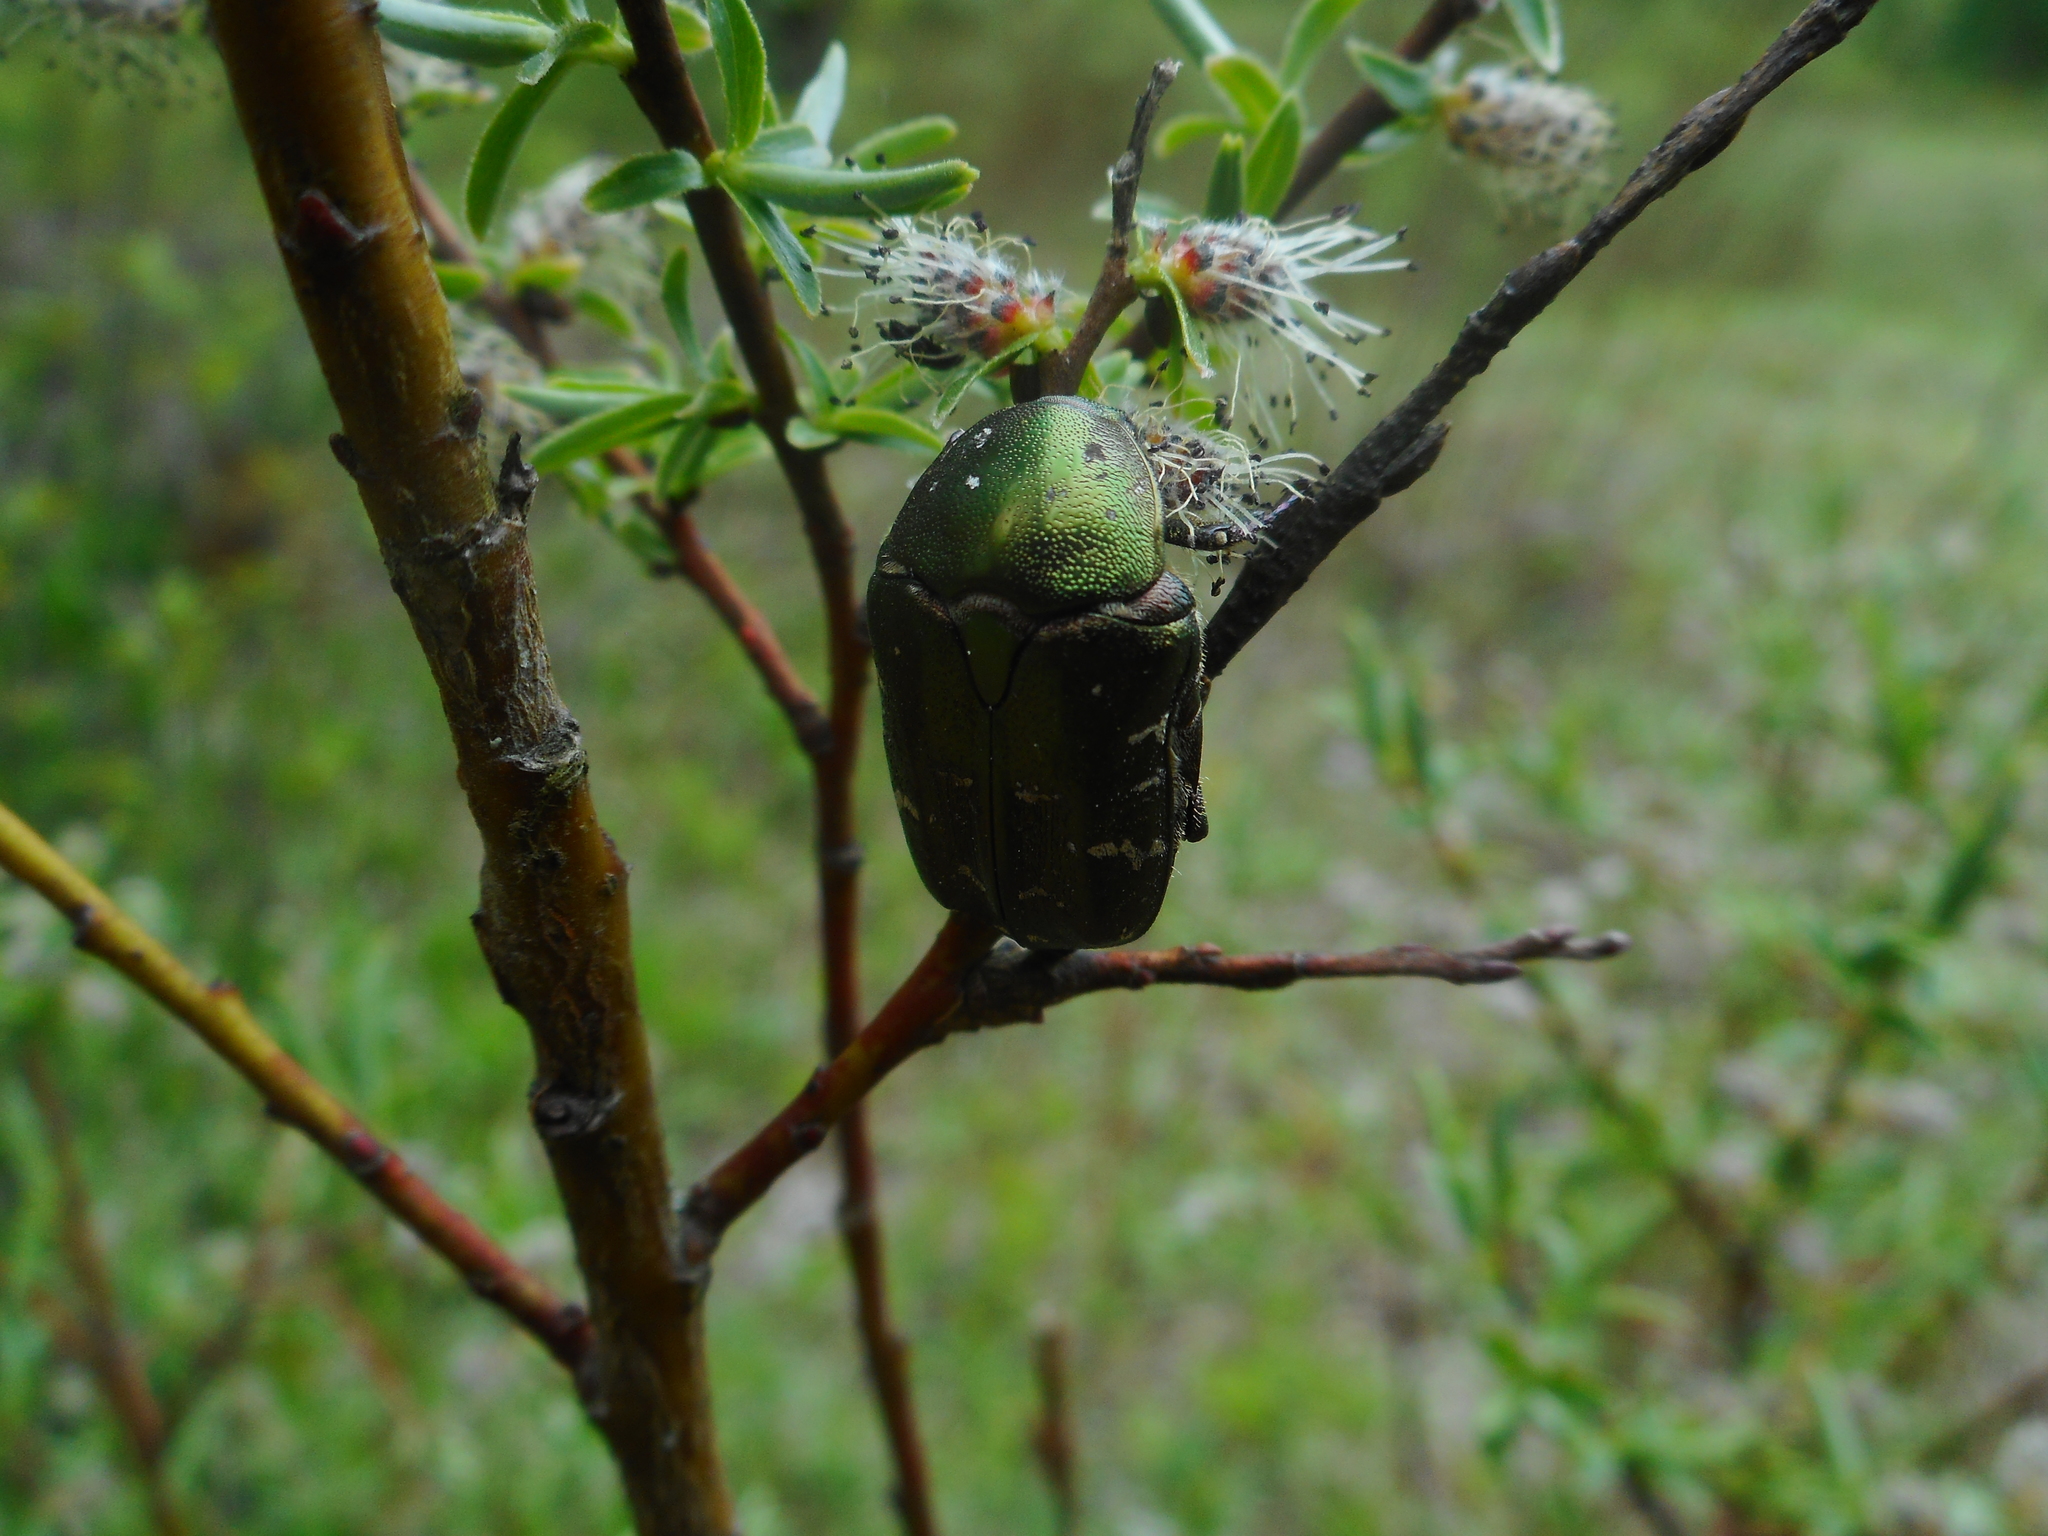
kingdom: Animalia
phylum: Arthropoda
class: Insecta
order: Coleoptera
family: Scarabaeidae
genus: Protaetia
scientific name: Protaetia cuprea
